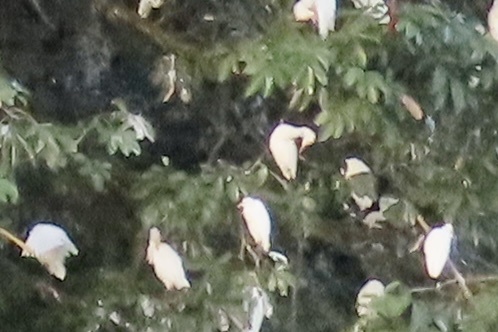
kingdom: Animalia
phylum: Chordata
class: Aves
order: Pelecaniformes
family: Ardeidae
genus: Bubulcus
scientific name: Bubulcus ibis
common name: Cattle egret
